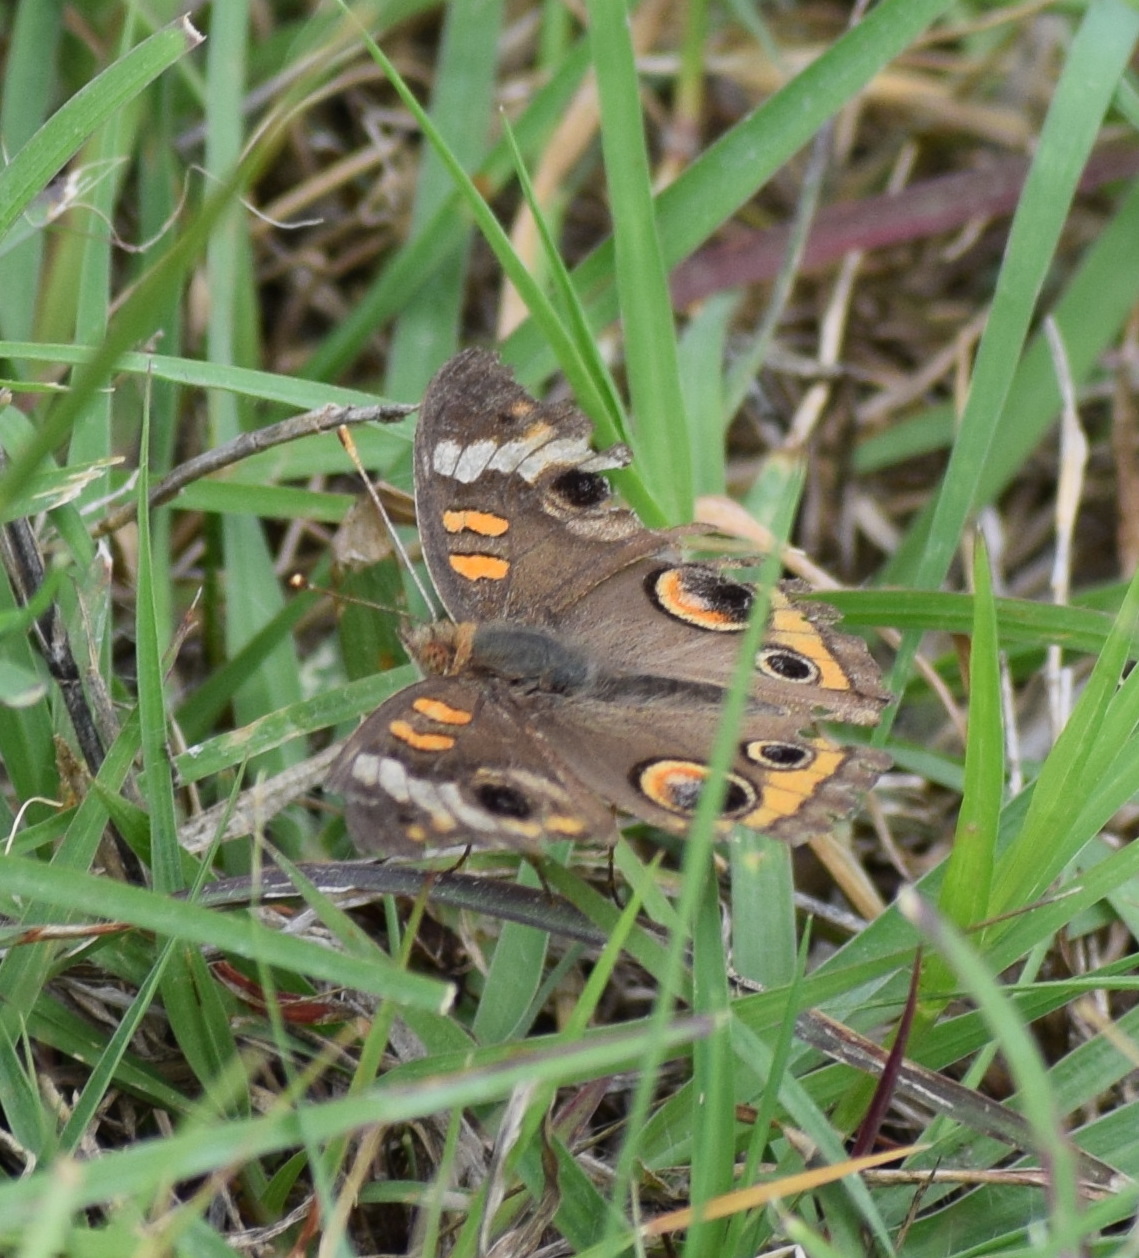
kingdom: Animalia
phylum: Arthropoda
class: Insecta
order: Lepidoptera
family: Nymphalidae
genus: Junonia
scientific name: Junonia coenia
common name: Common buckeye
